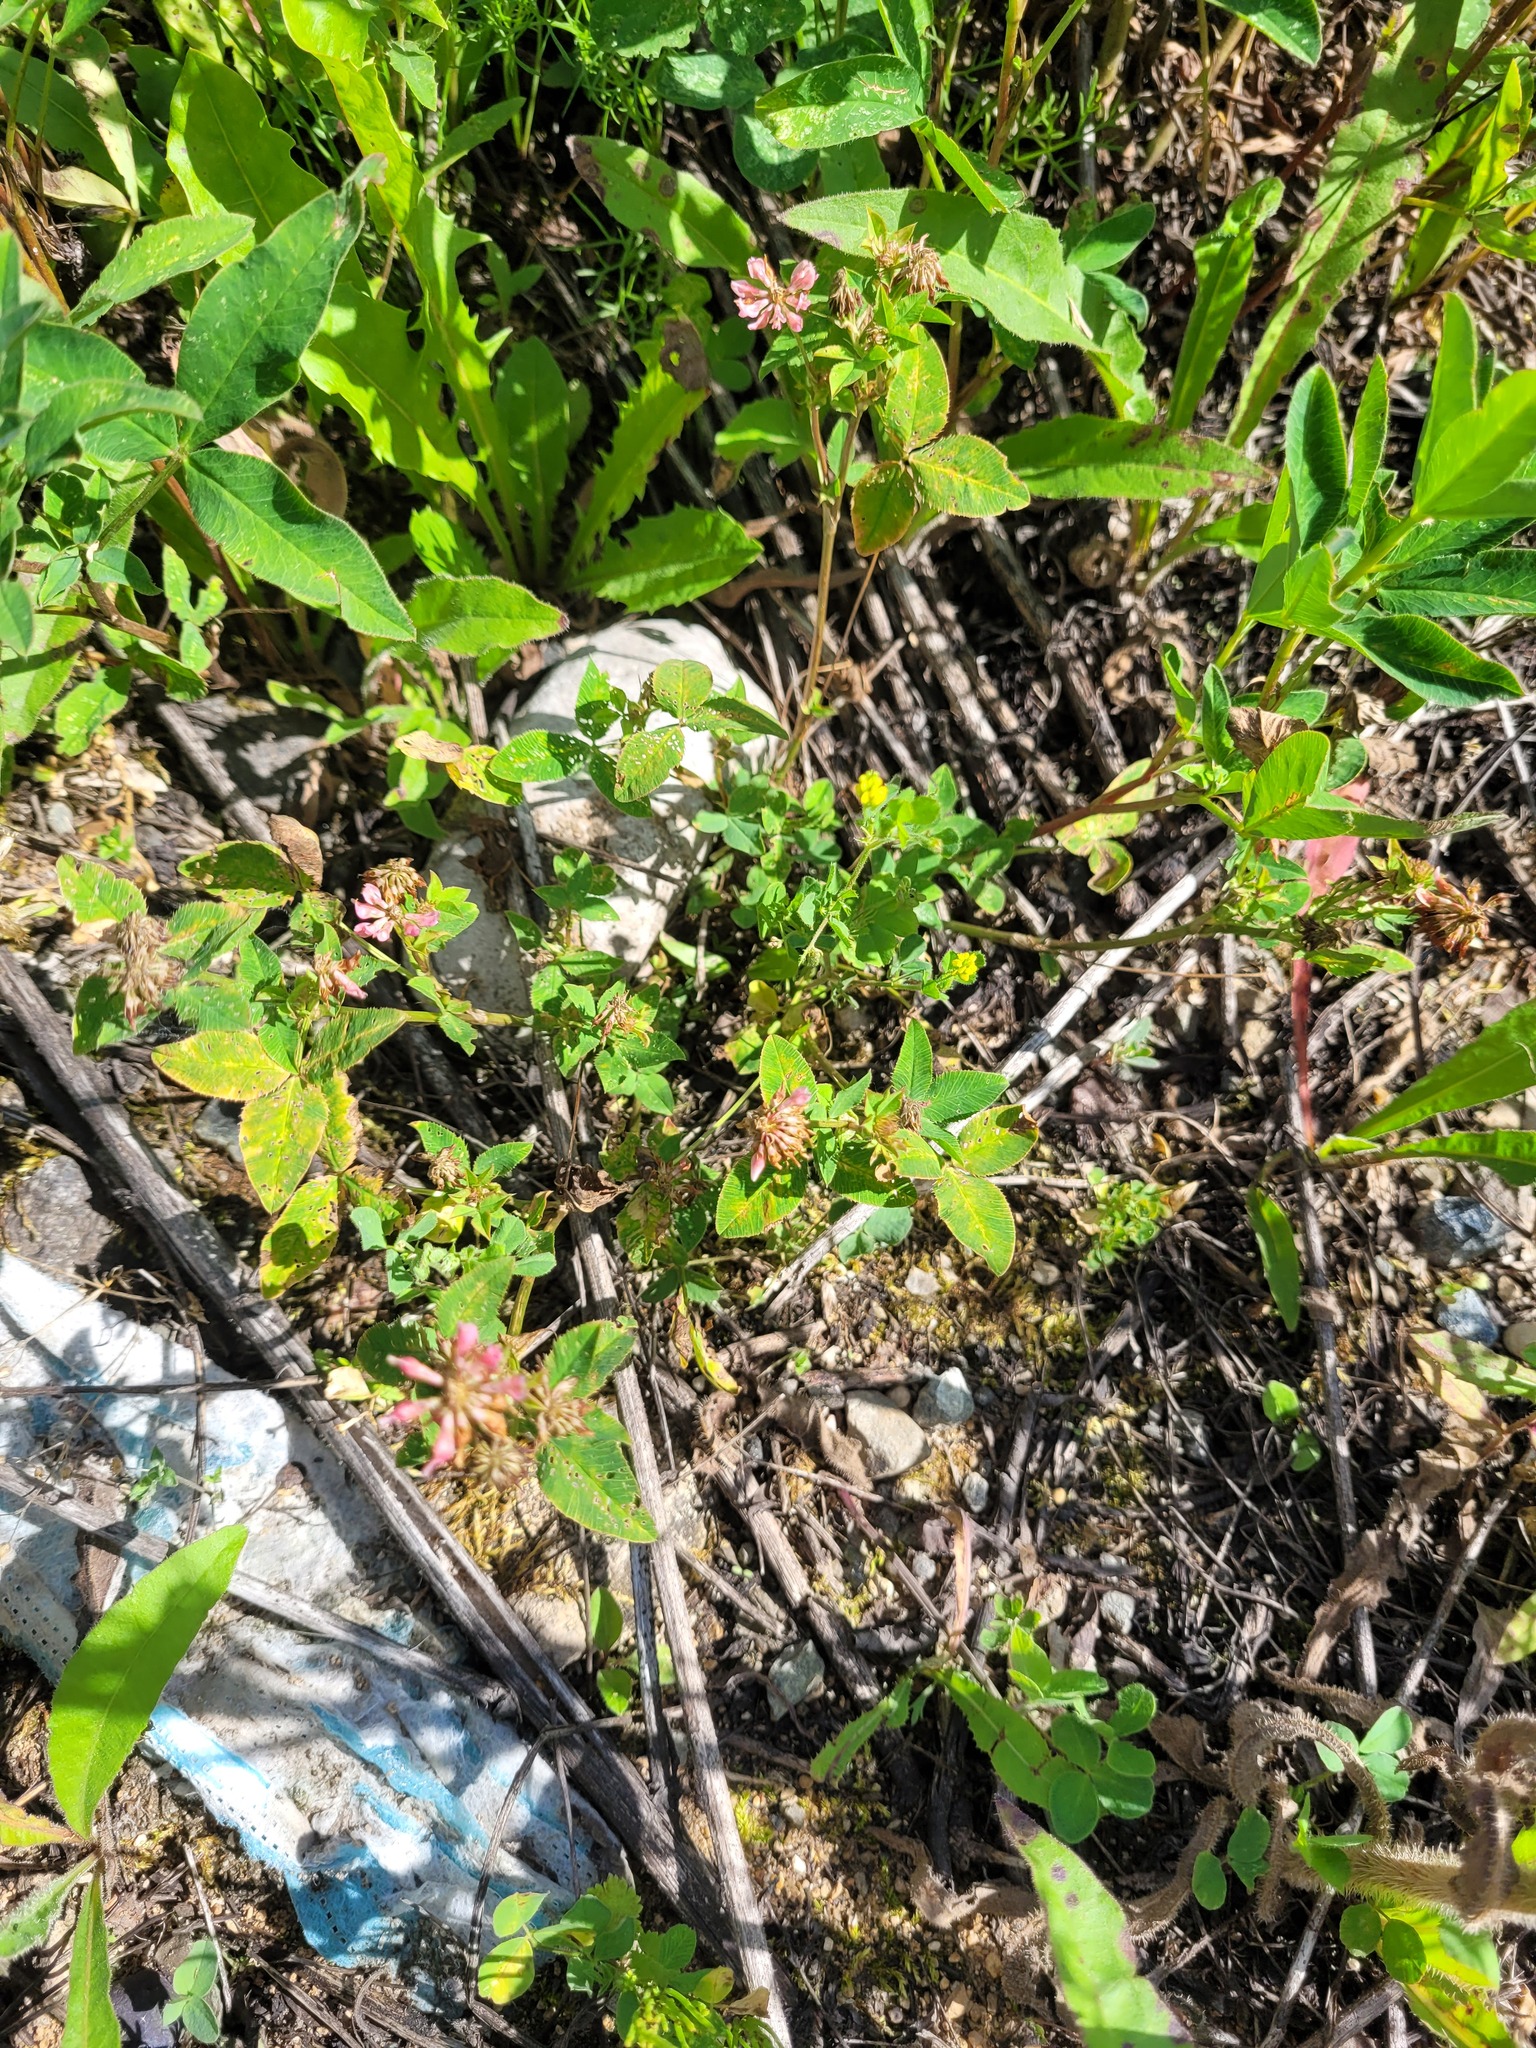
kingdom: Plantae
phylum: Tracheophyta
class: Magnoliopsida
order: Fabales
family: Fabaceae
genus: Trifolium
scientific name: Trifolium hybridum
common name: Alsike clover
